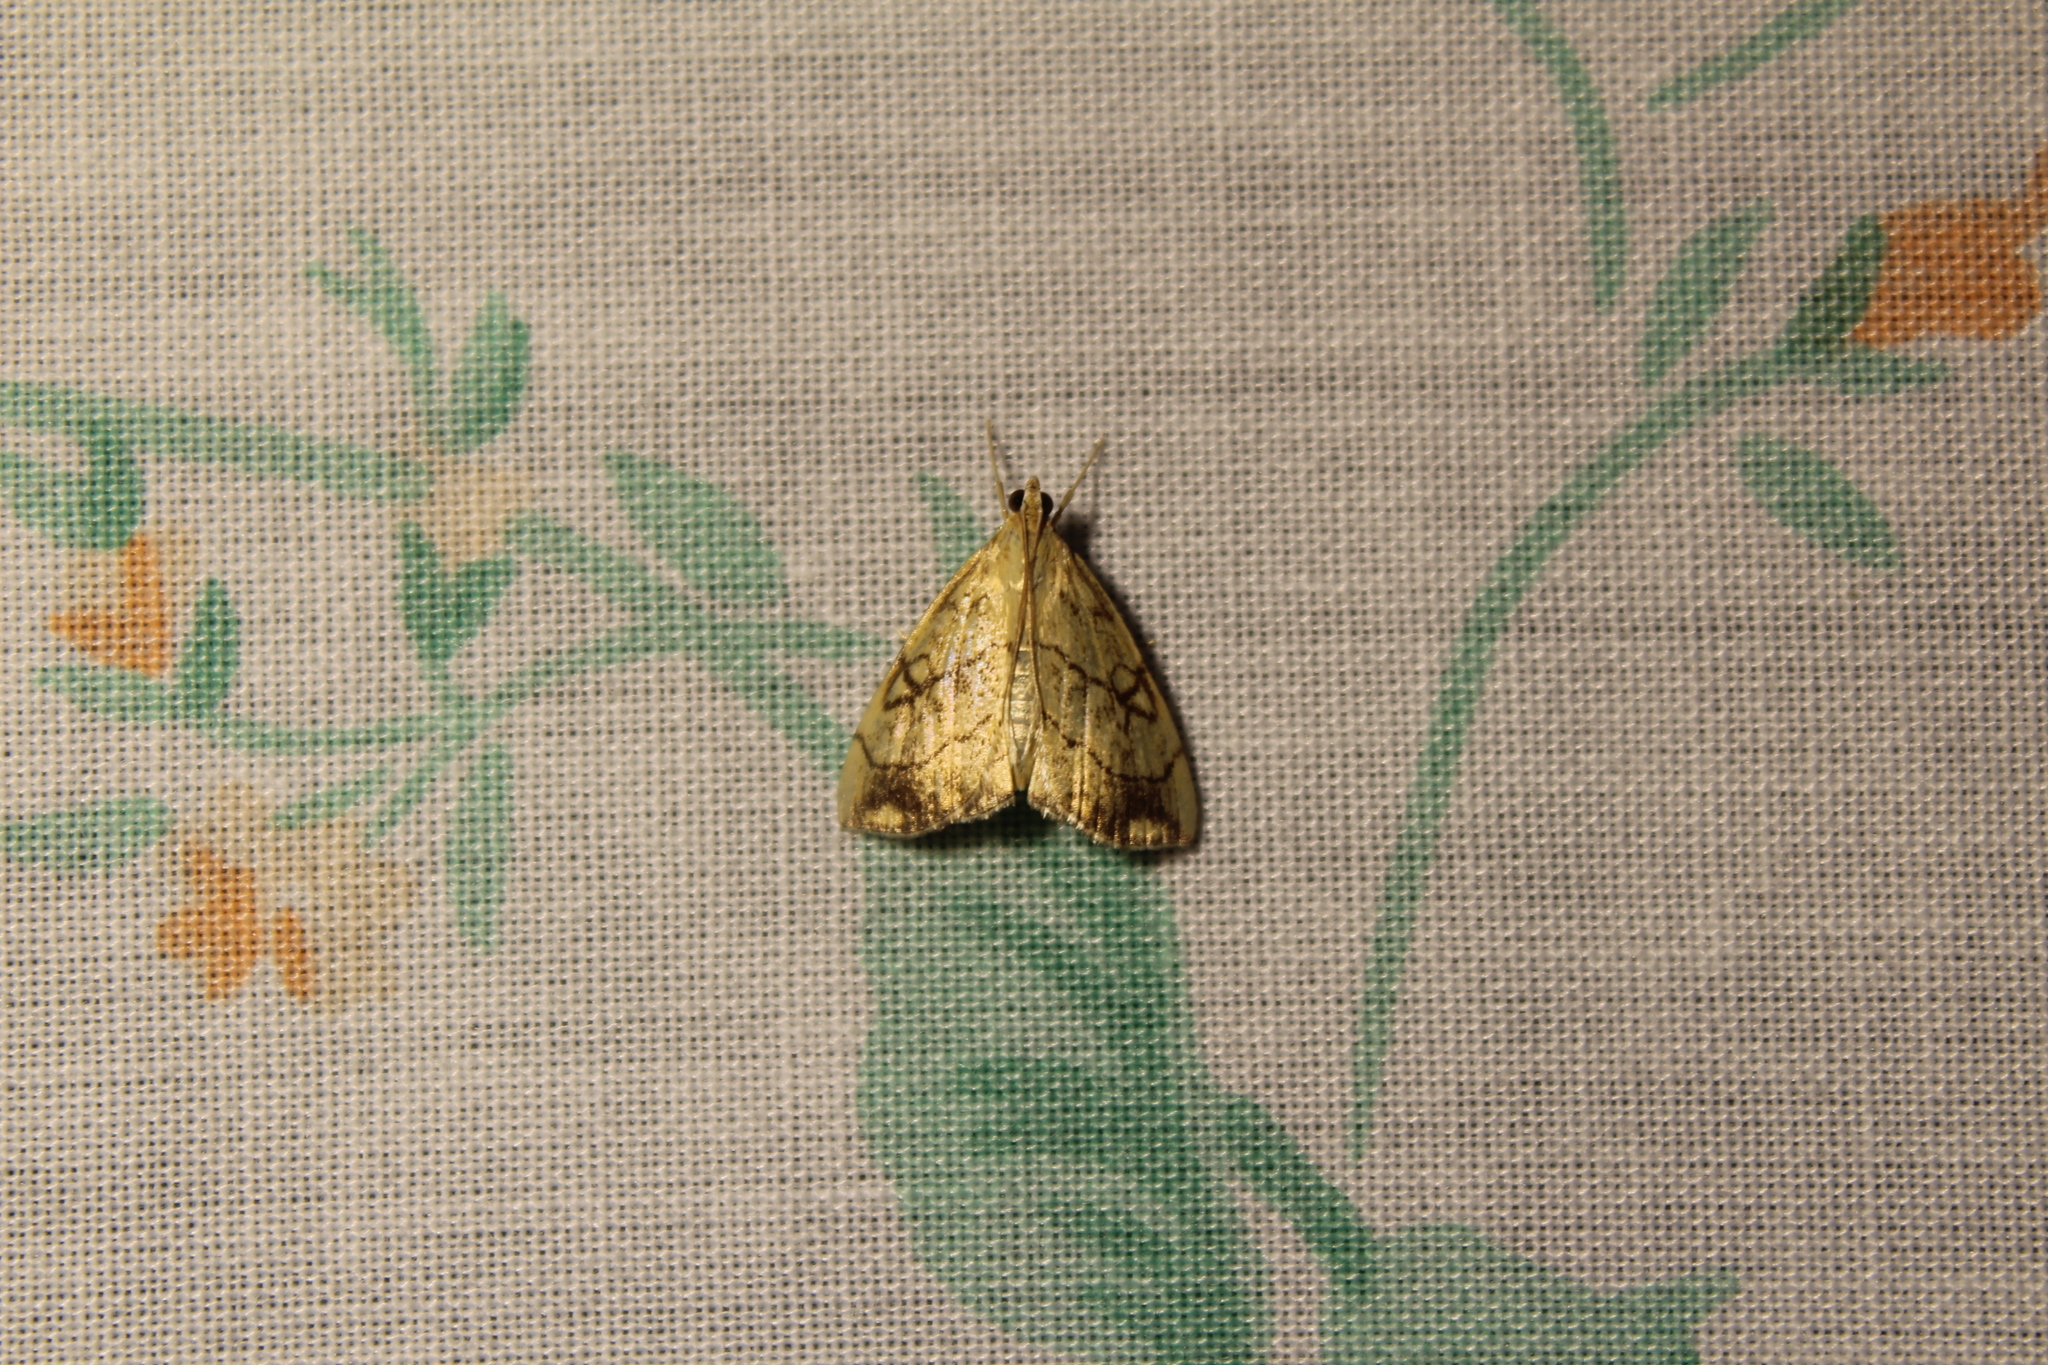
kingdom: Animalia
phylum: Arthropoda
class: Insecta
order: Lepidoptera
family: Crambidae
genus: Evergestis
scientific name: Evergestis pallidata
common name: Chequered pearl
